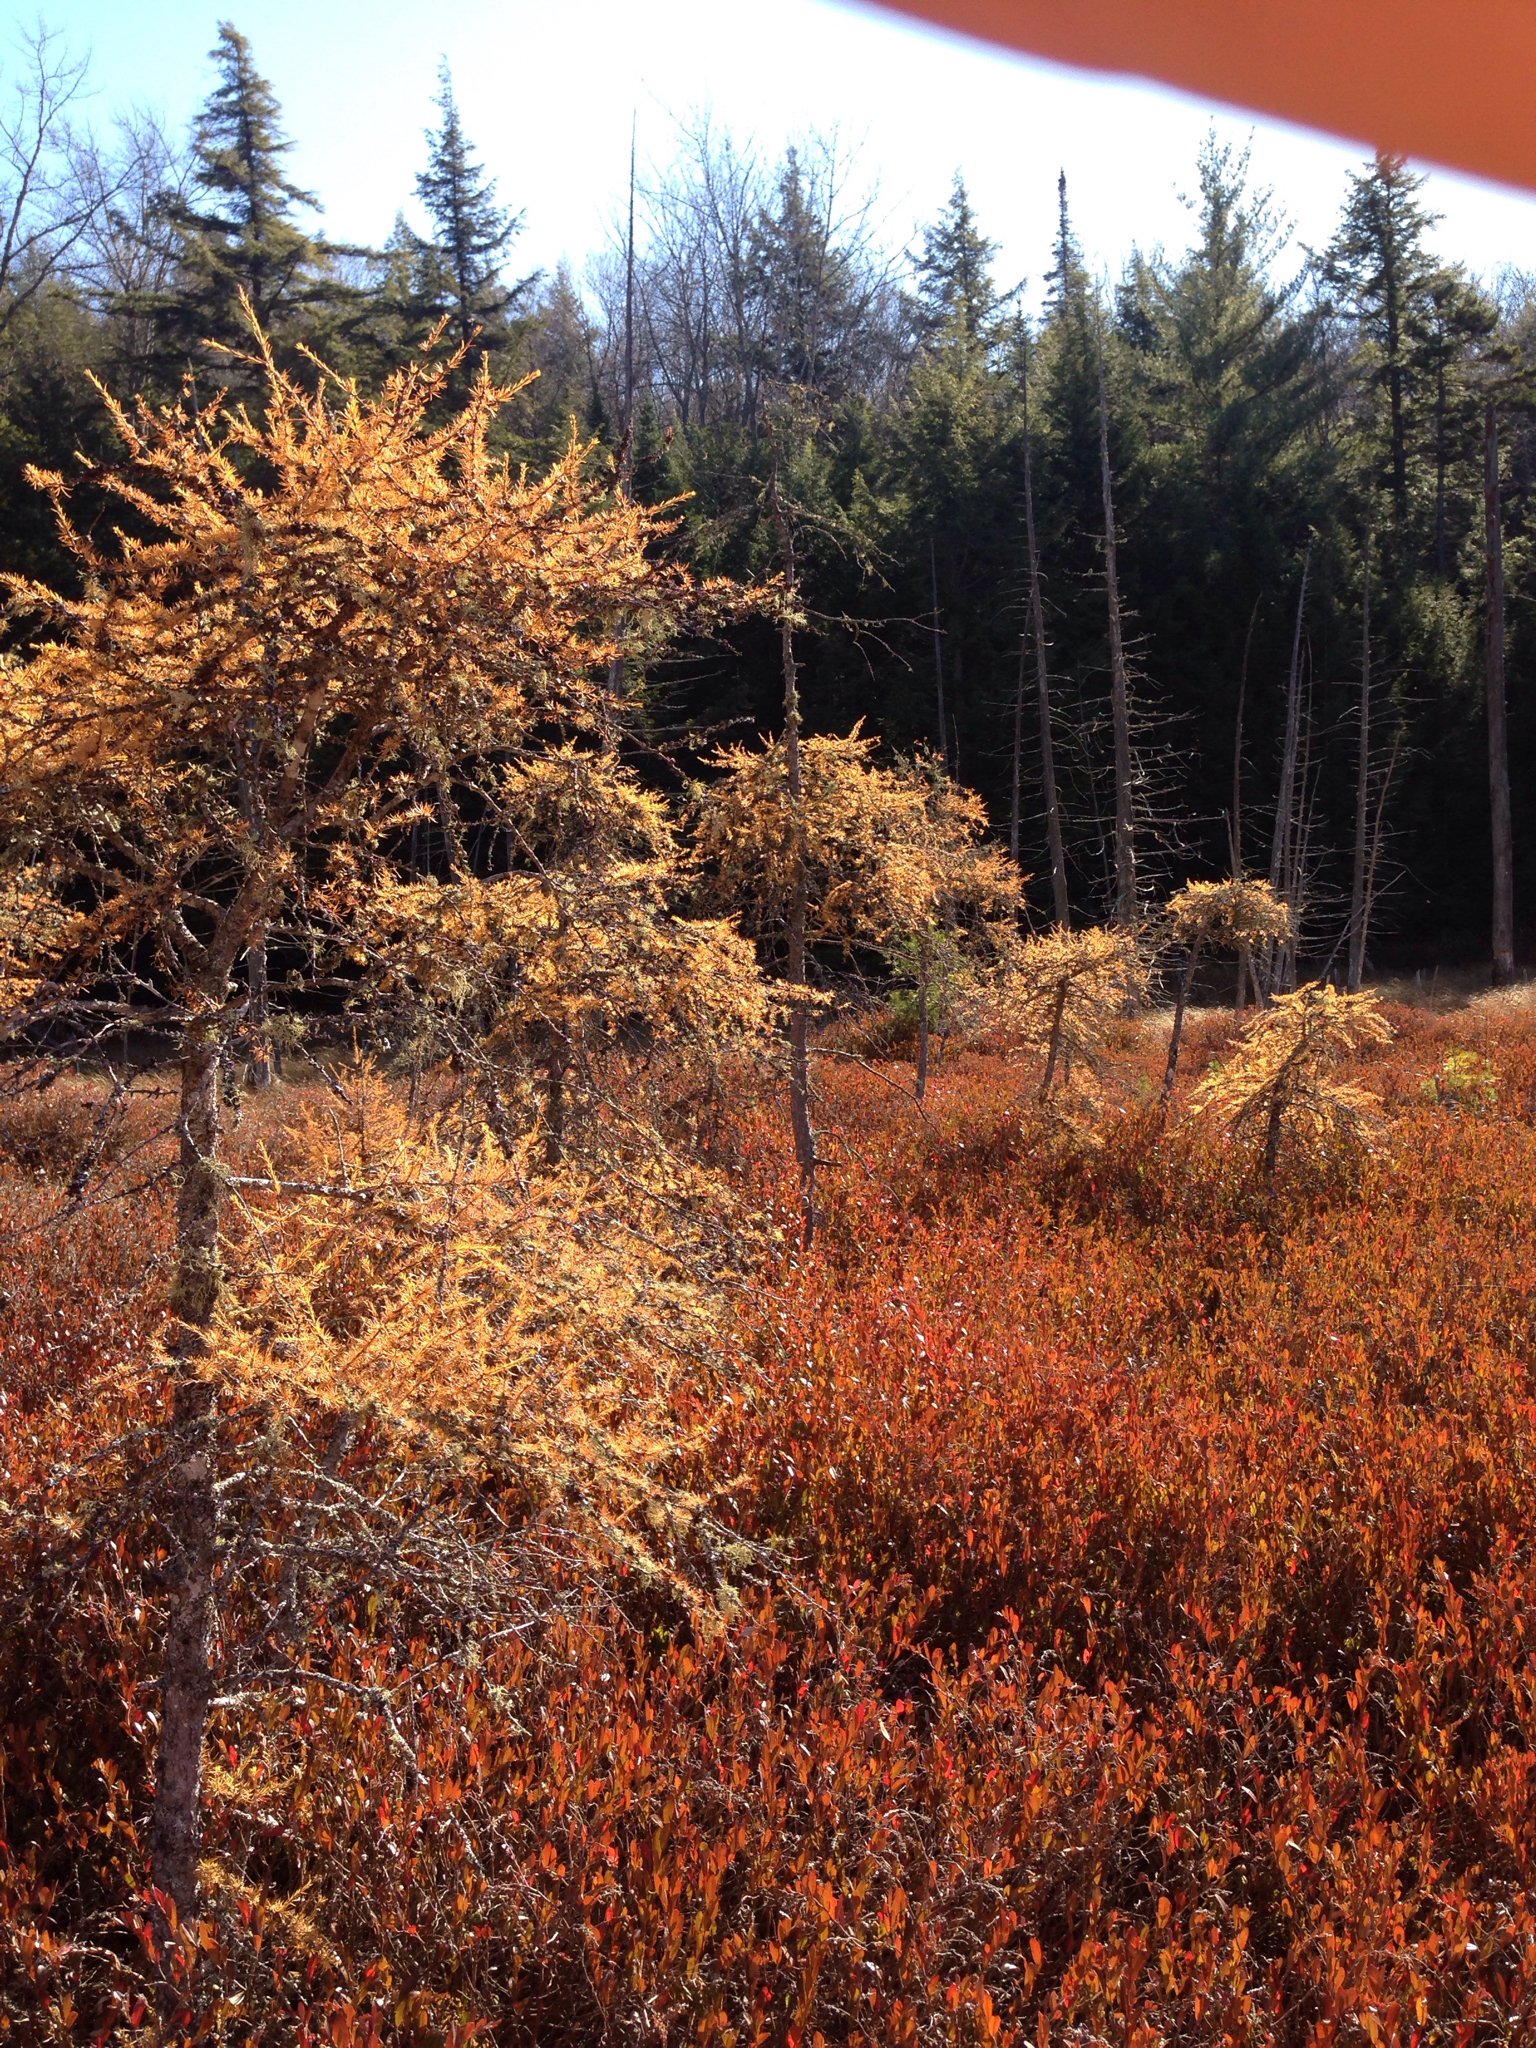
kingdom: Plantae
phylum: Tracheophyta
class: Pinopsida
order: Pinales
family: Pinaceae
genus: Larix
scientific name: Larix laricina
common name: American larch
